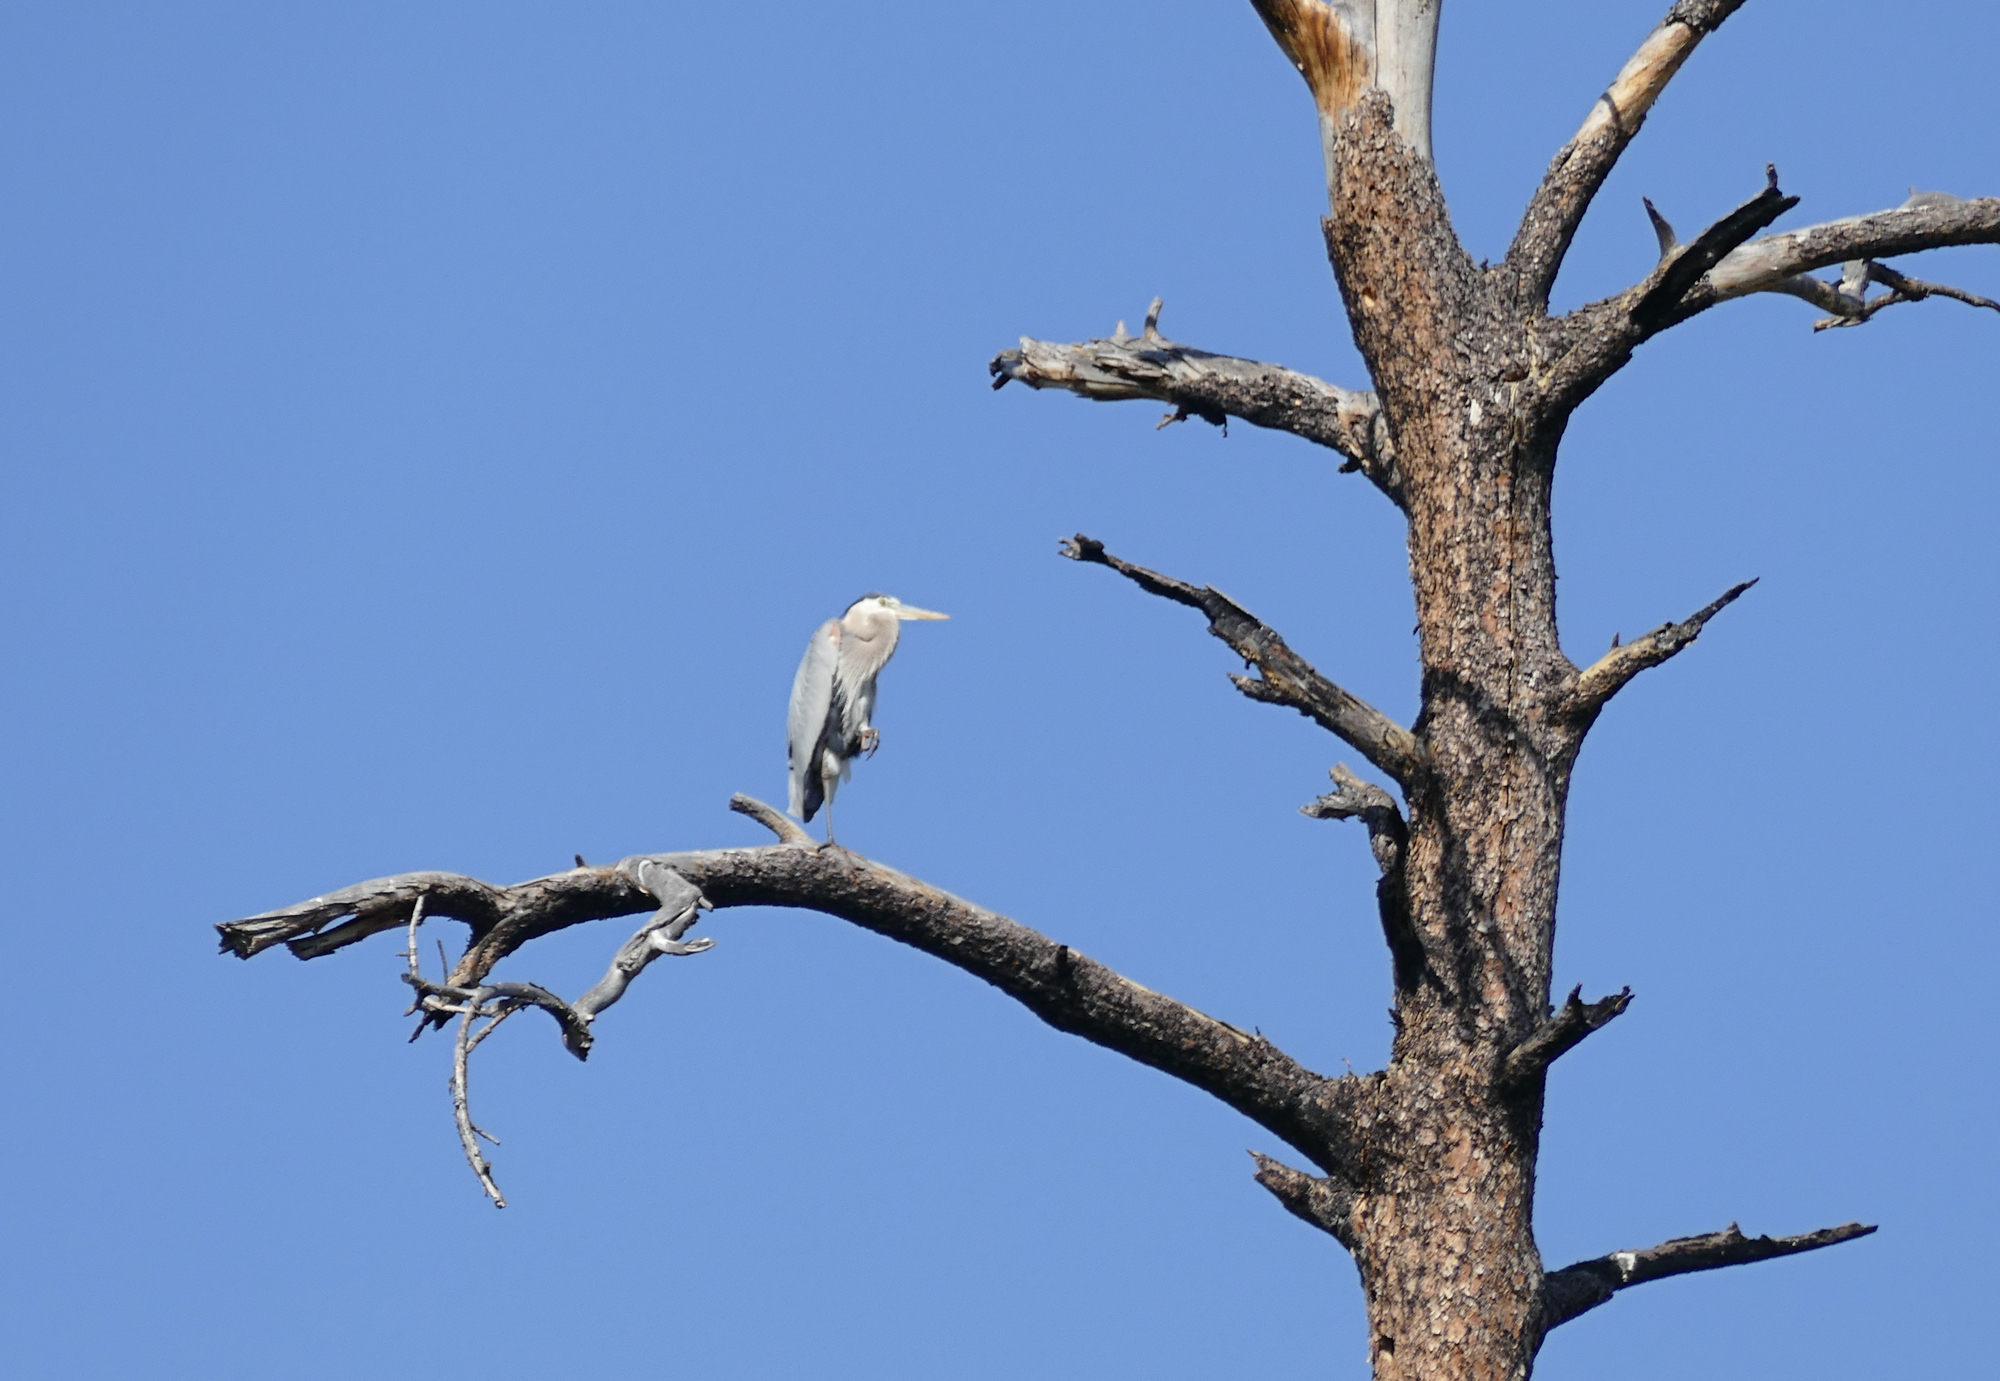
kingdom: Animalia
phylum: Chordata
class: Aves
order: Pelecaniformes
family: Ardeidae
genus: Ardea
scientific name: Ardea herodias
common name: Great blue heron
